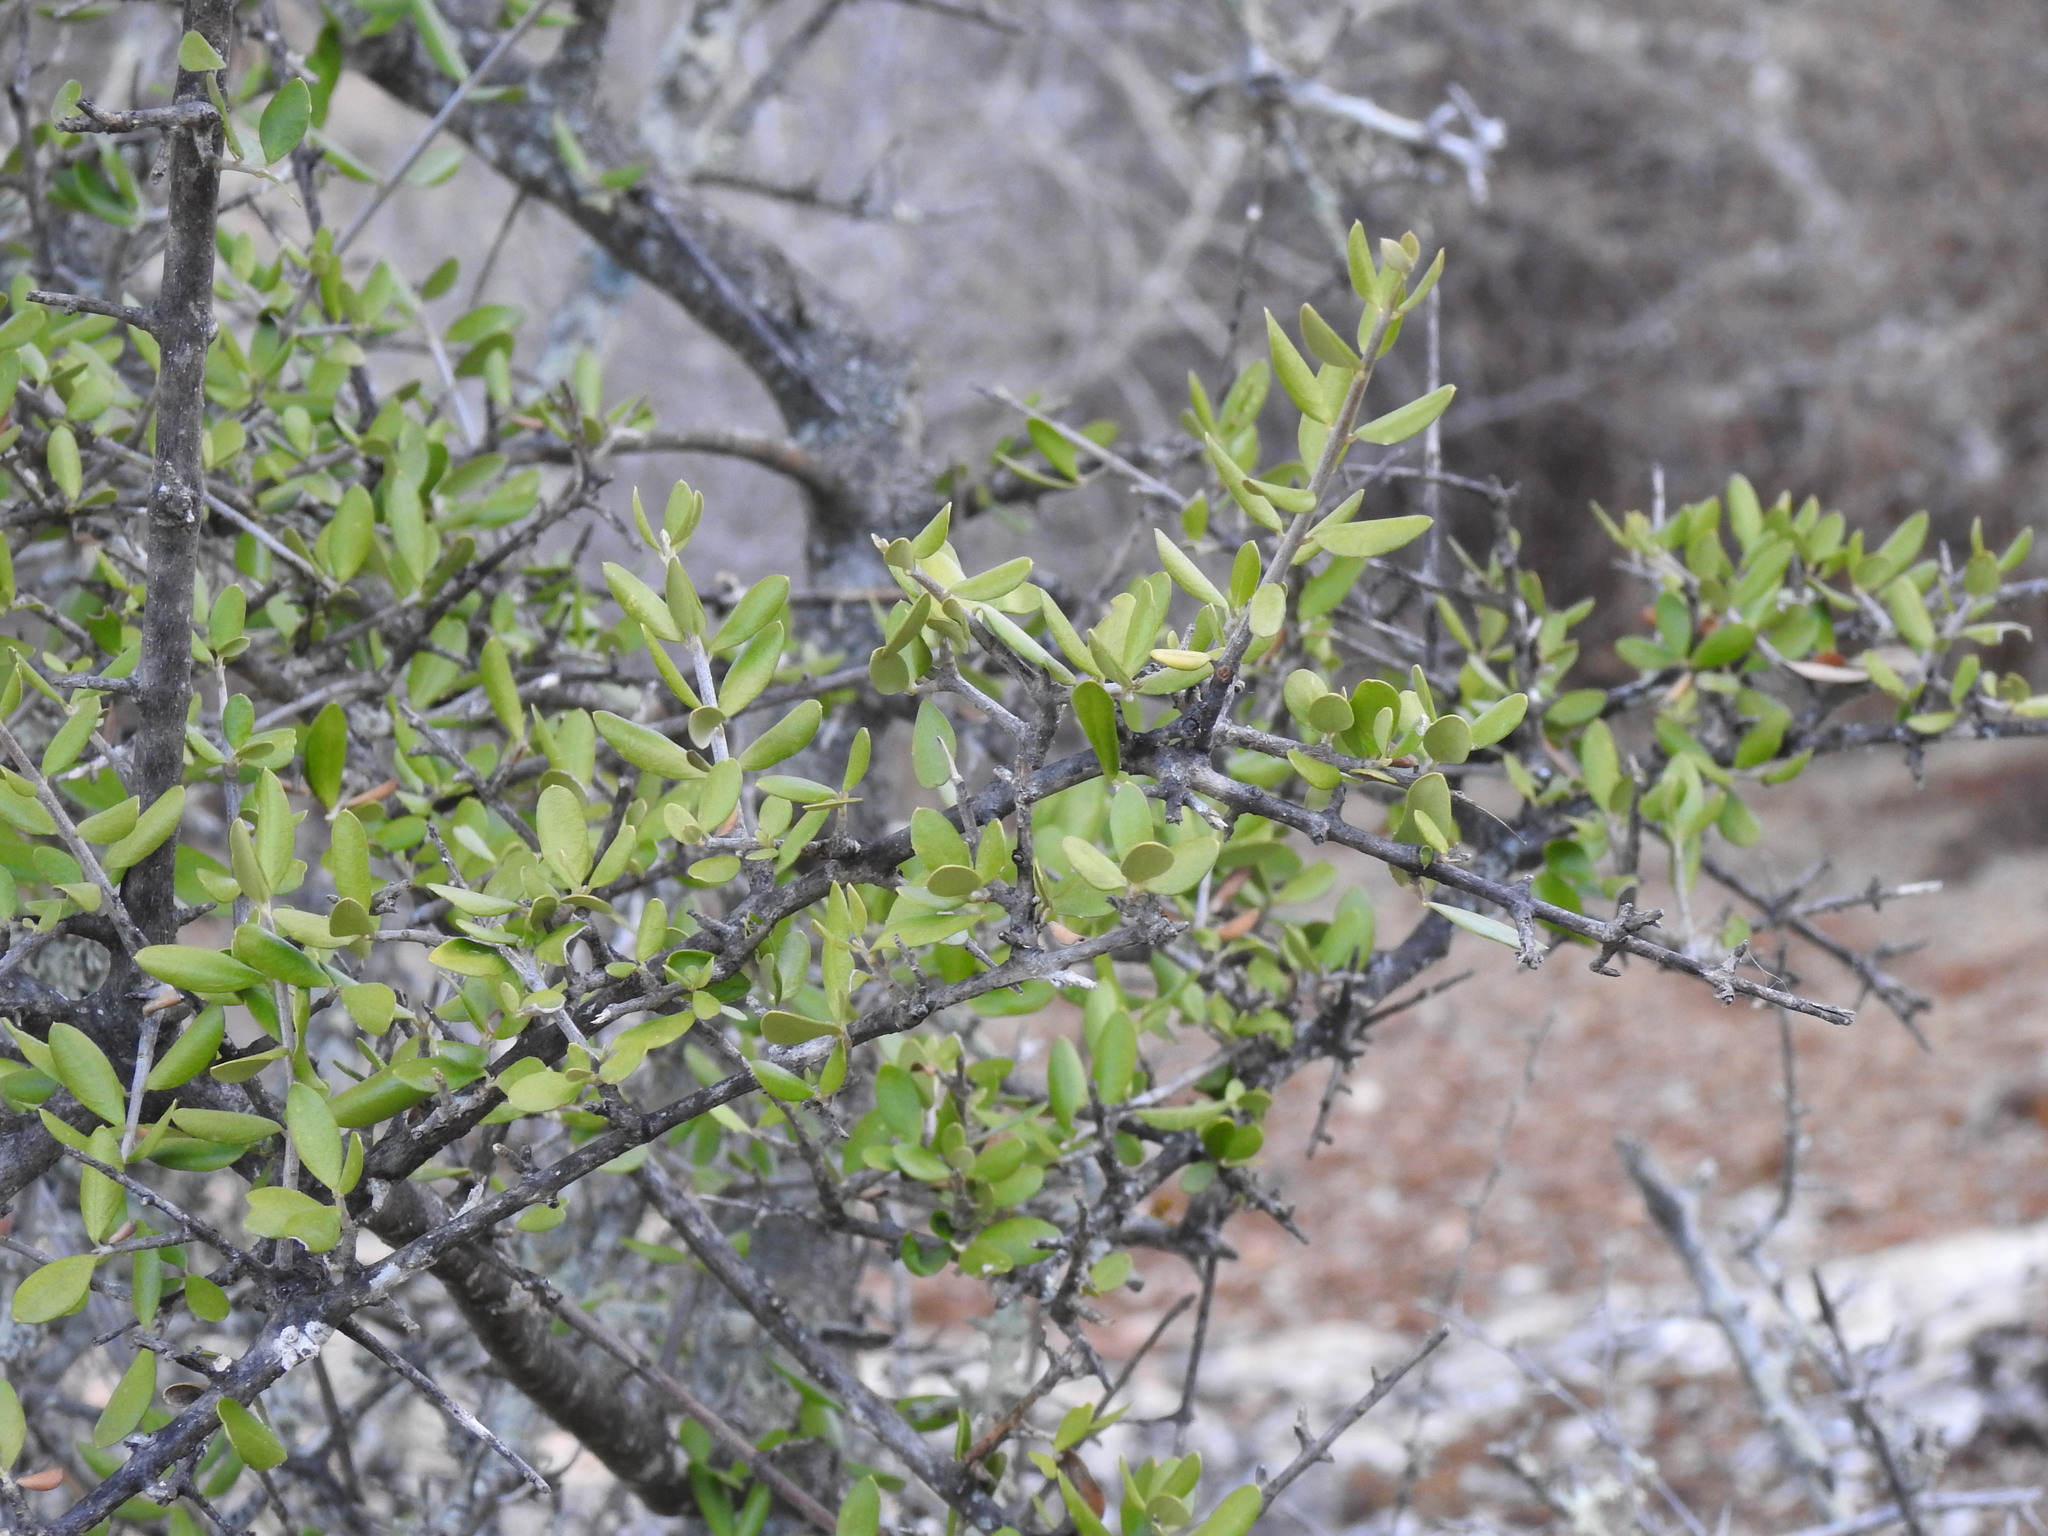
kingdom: Plantae
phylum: Tracheophyta
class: Magnoliopsida
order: Lamiales
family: Oleaceae
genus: Olea
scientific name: Olea europaea
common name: Olive
